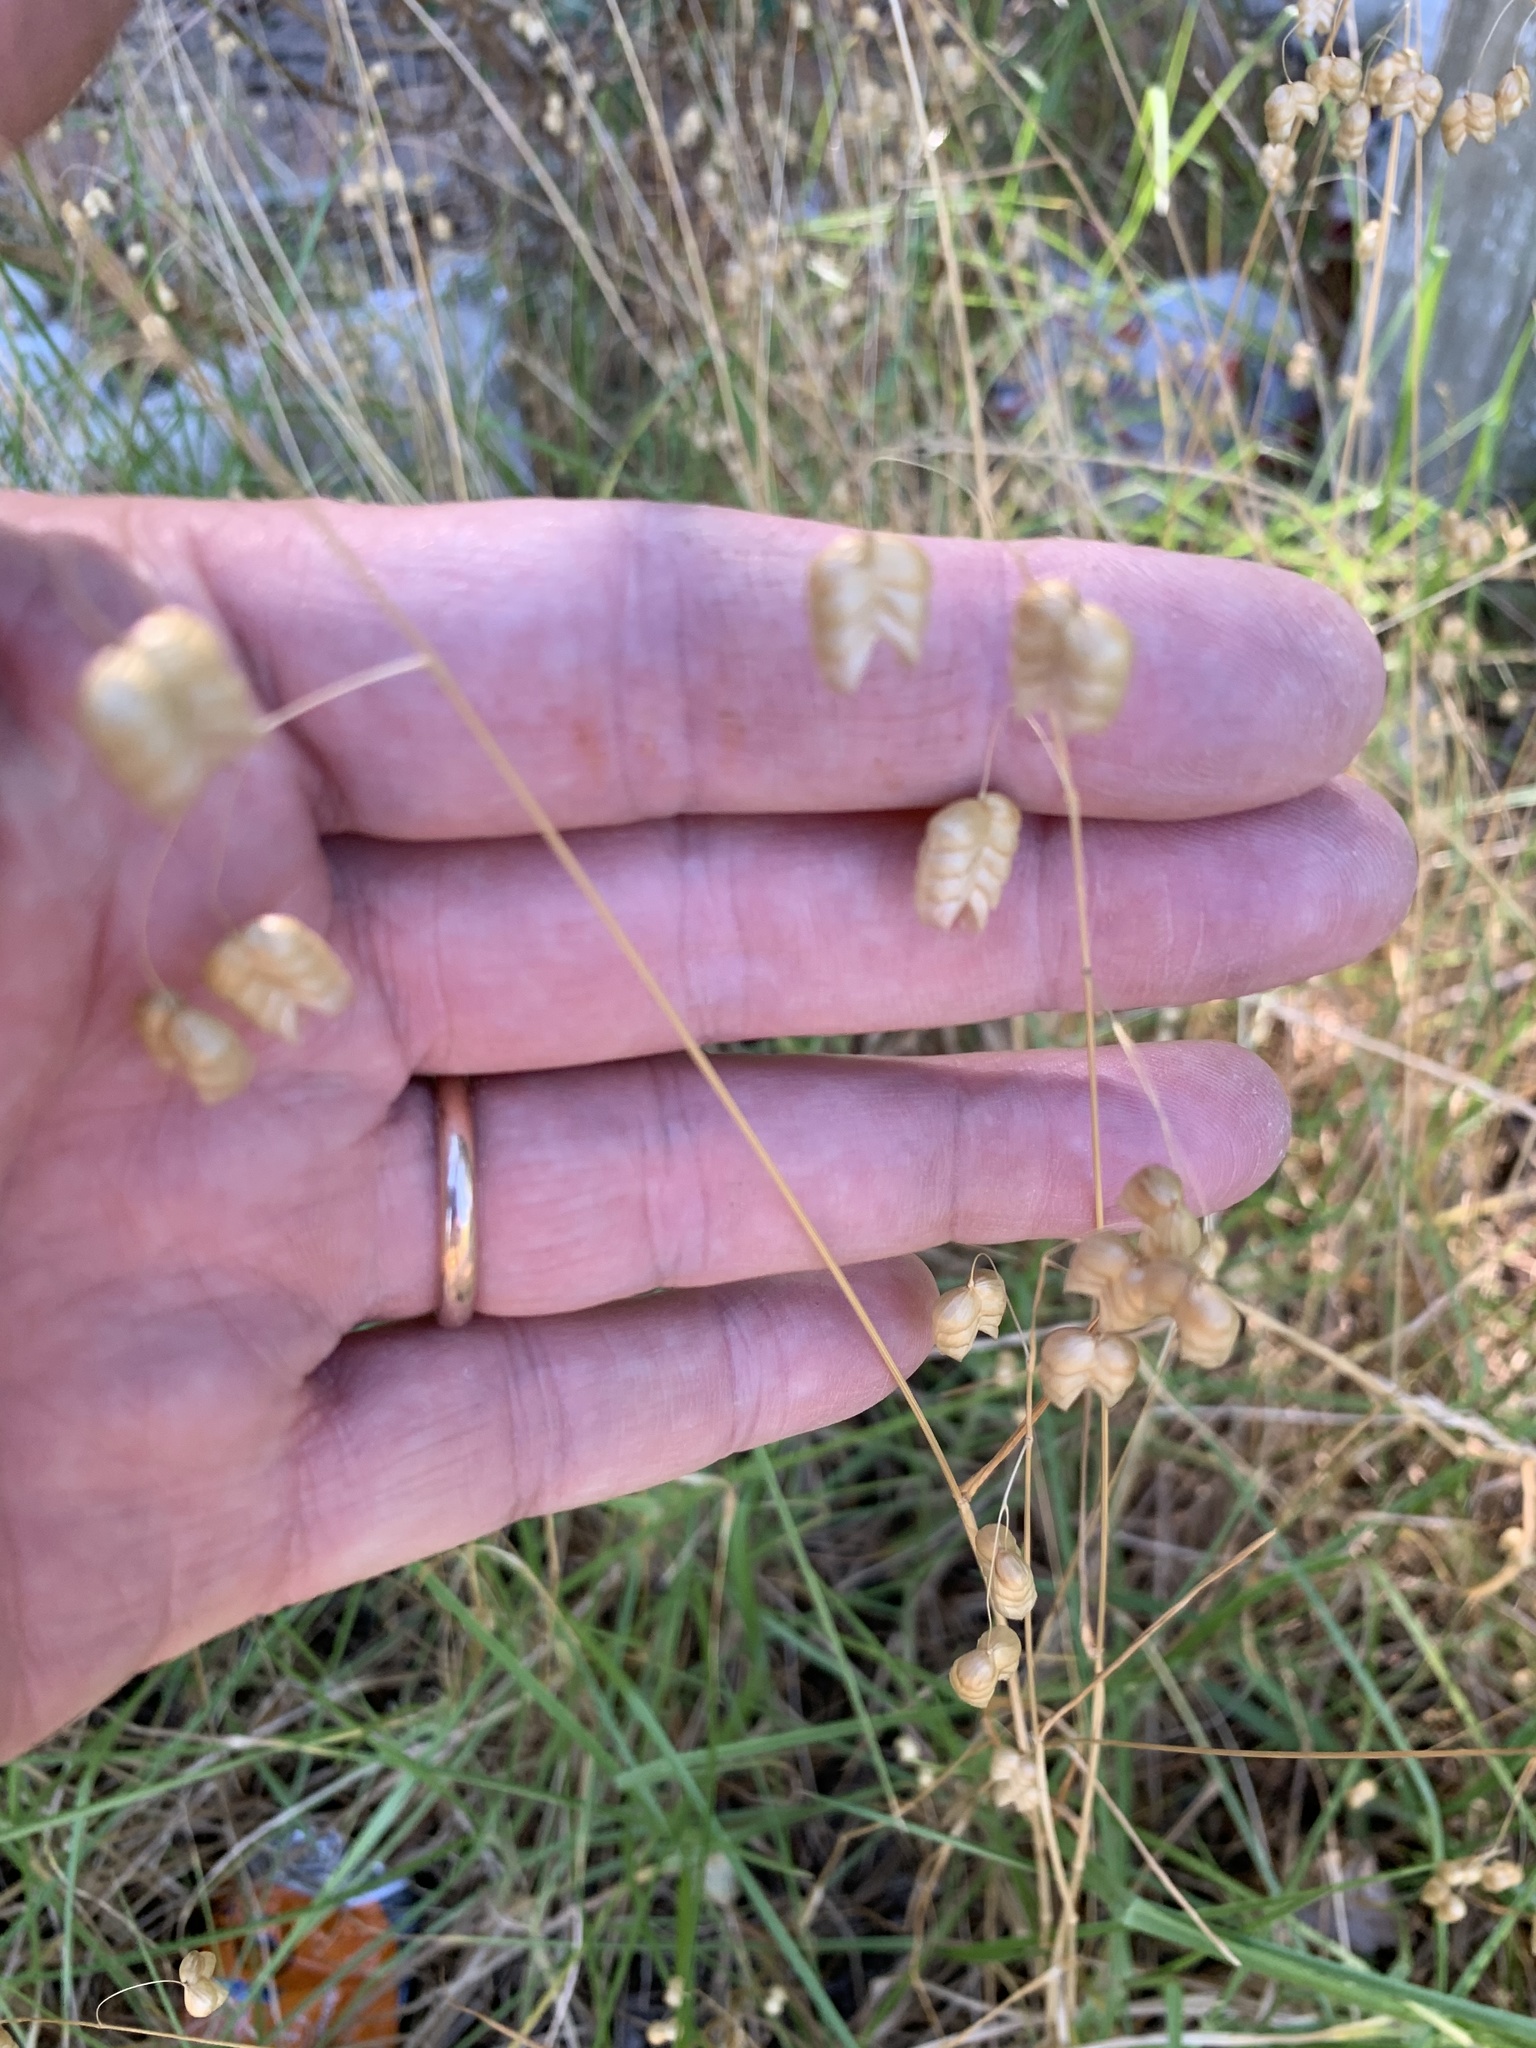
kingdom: Plantae
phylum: Tracheophyta
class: Liliopsida
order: Poales
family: Poaceae
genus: Briza
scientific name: Briza maxima
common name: Big quakinggrass
